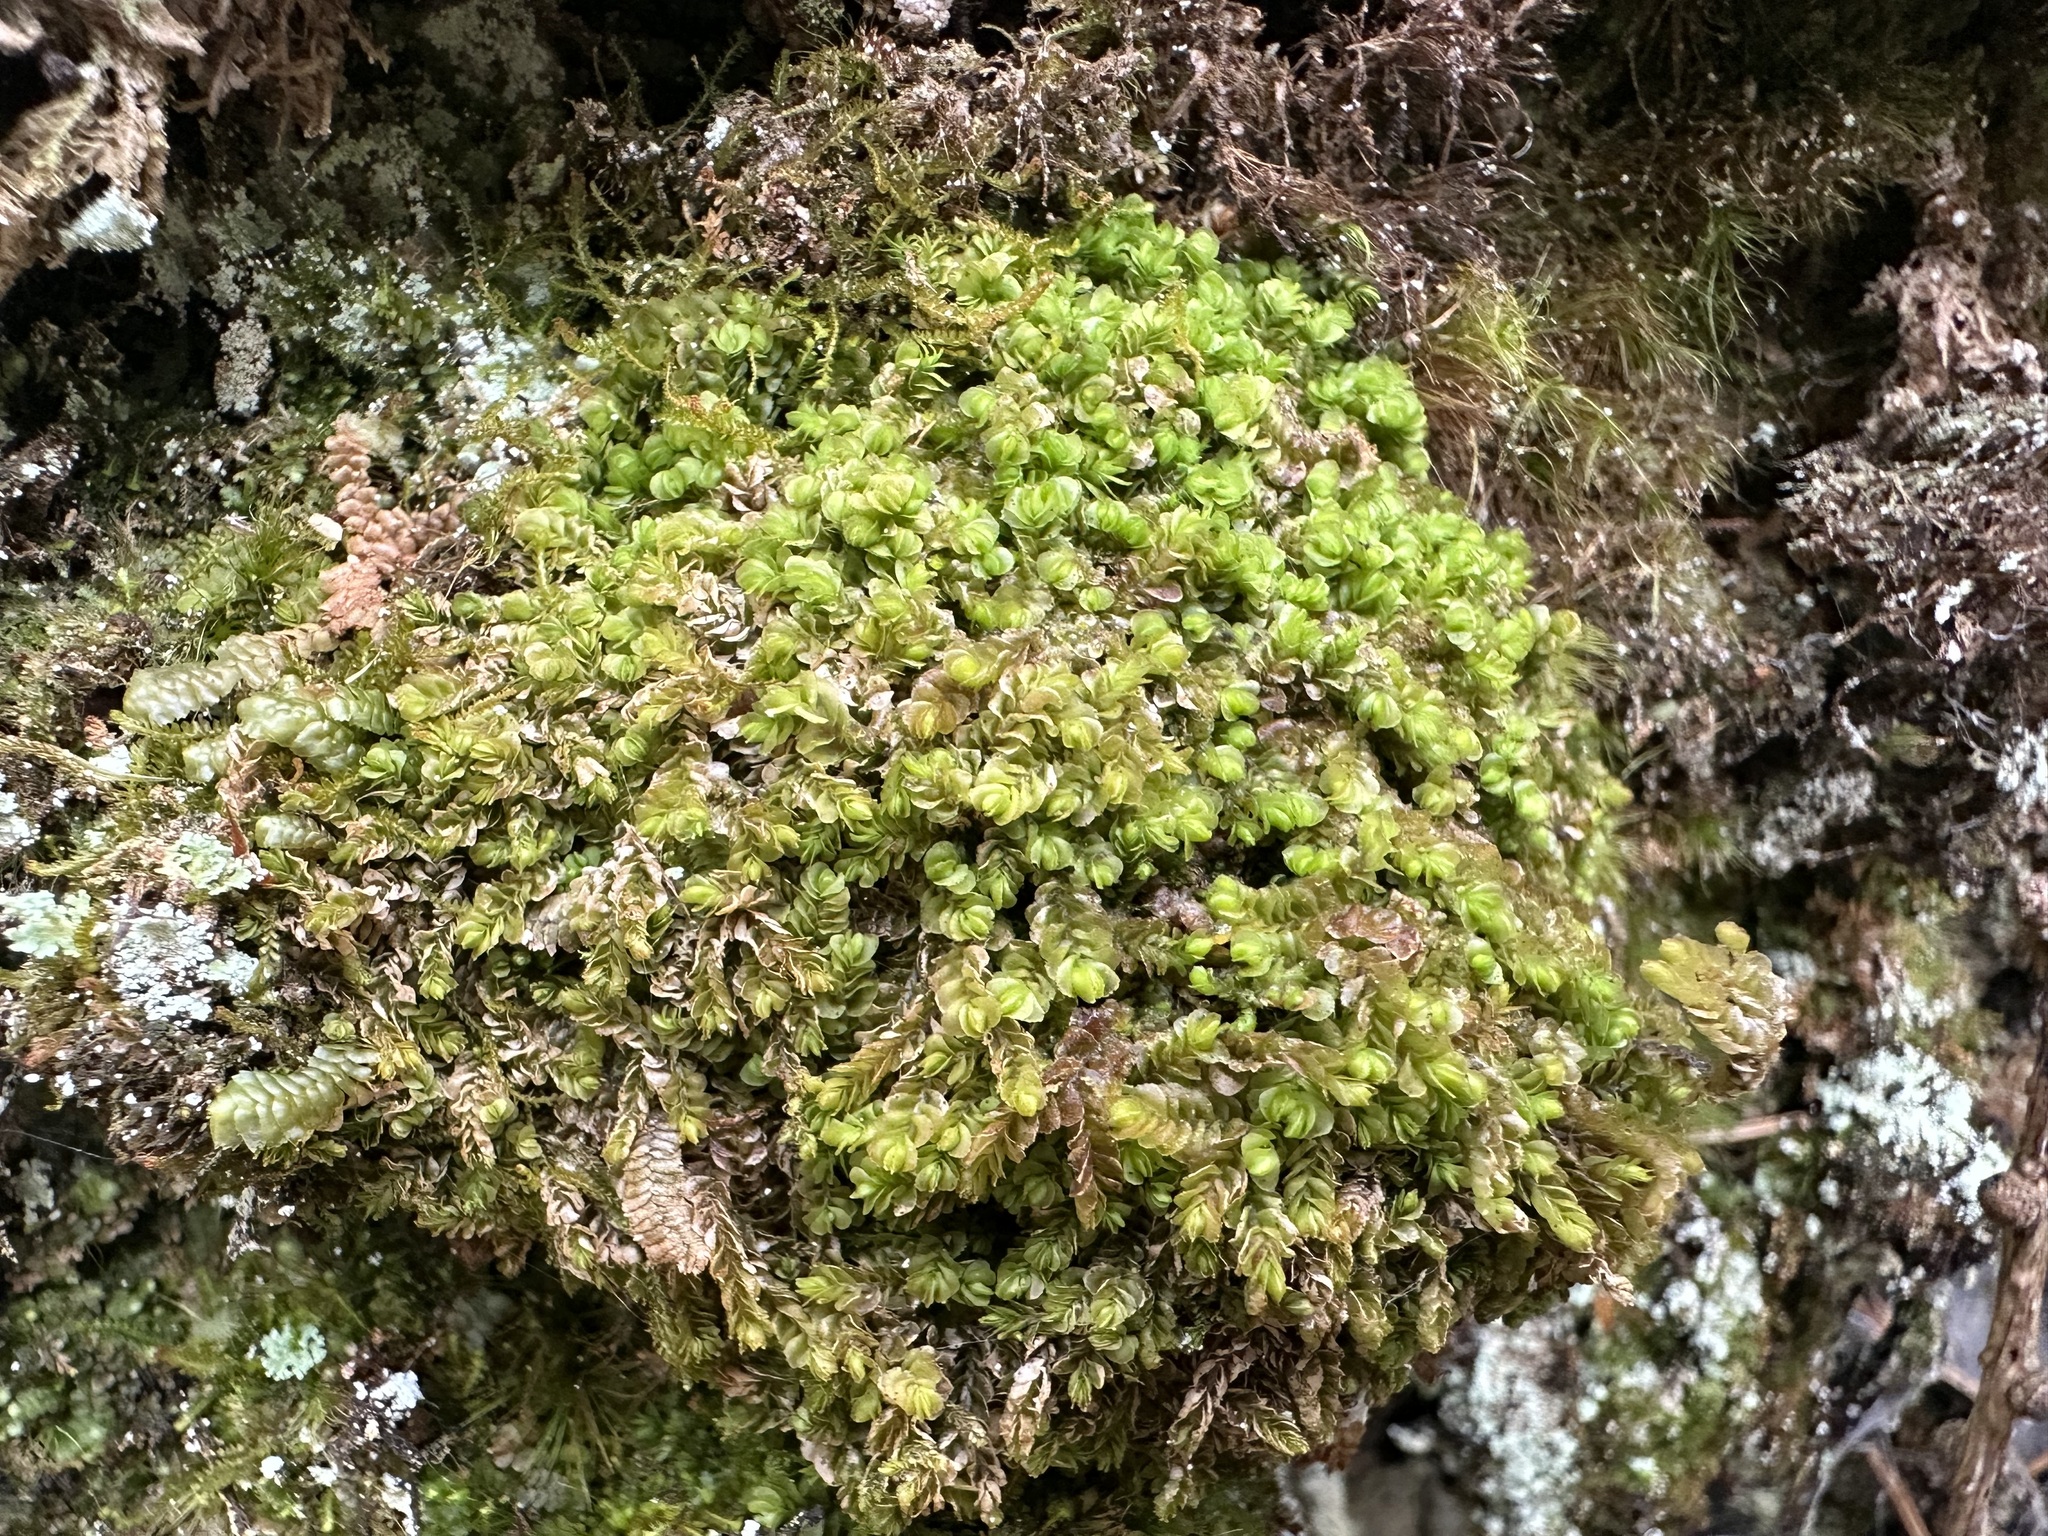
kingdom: Plantae
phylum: Marchantiophyta
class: Jungermanniopsida
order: Jungermanniales
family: Myliaceae
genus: Mylia
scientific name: Mylia taylorii
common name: Taylor s flapwort
